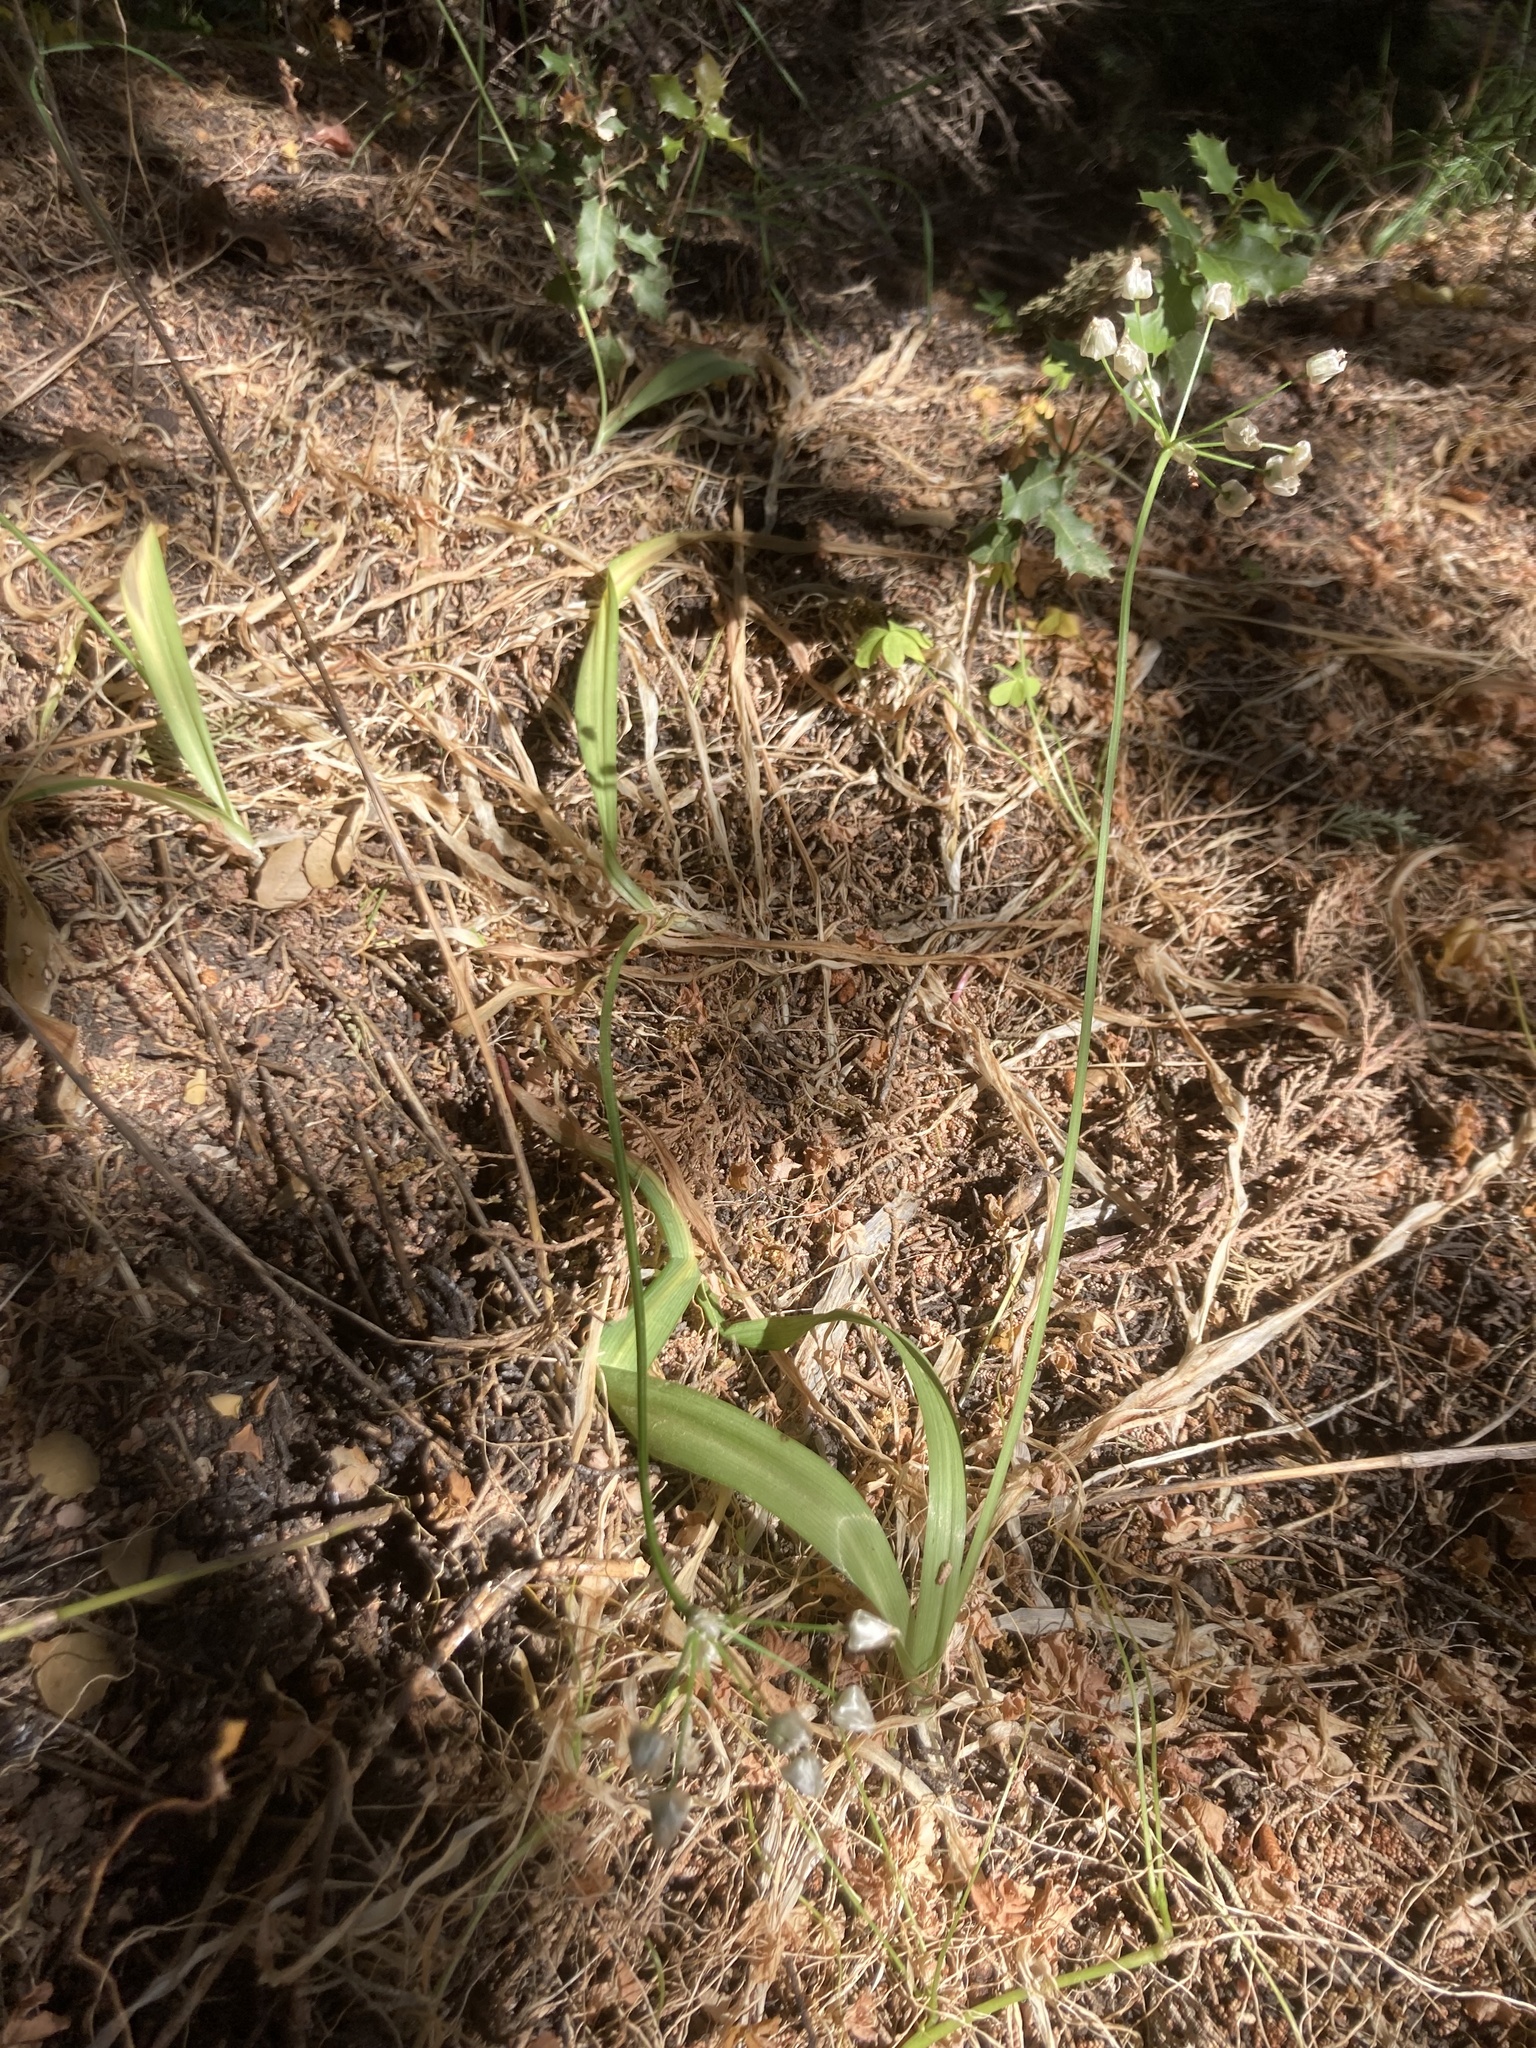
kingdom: Plantae
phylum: Tracheophyta
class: Liliopsida
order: Asparagales
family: Amaryllidaceae
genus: Allium
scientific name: Allium
